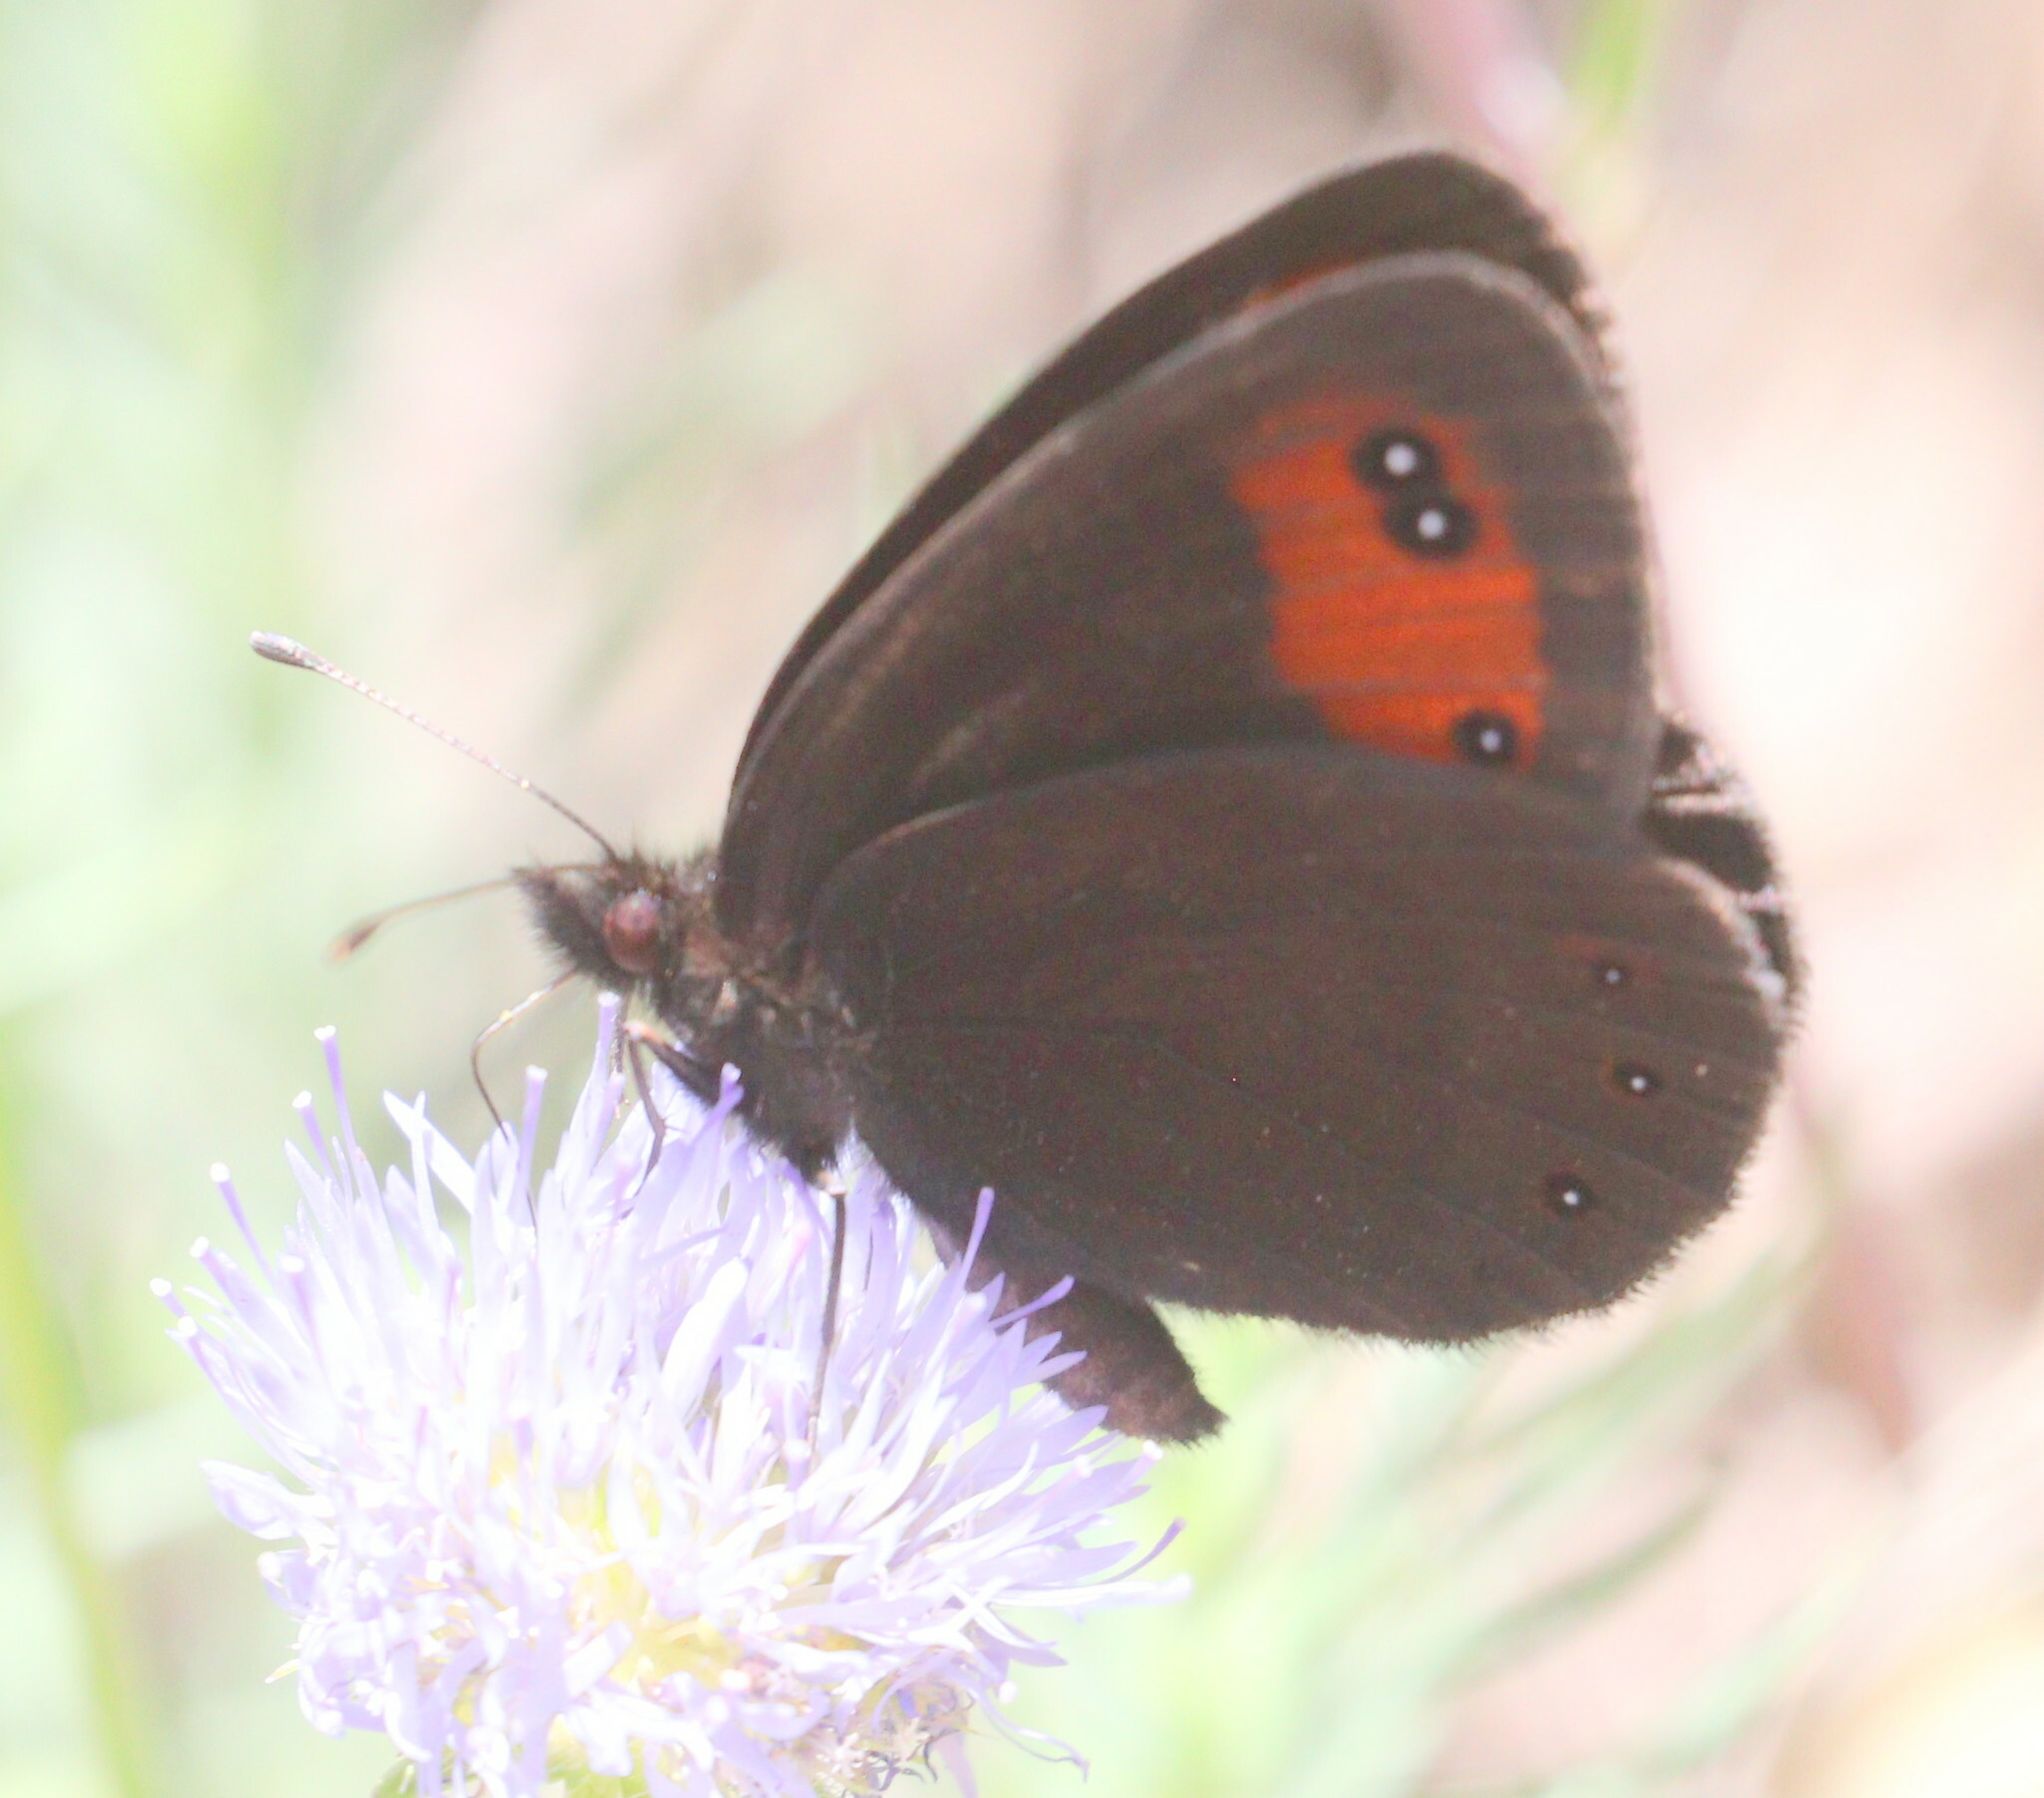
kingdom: Animalia
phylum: Arthropoda
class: Insecta
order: Lepidoptera
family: Nymphalidae
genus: Erebia
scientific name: Erebia meolans
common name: Piedmont ringlet
